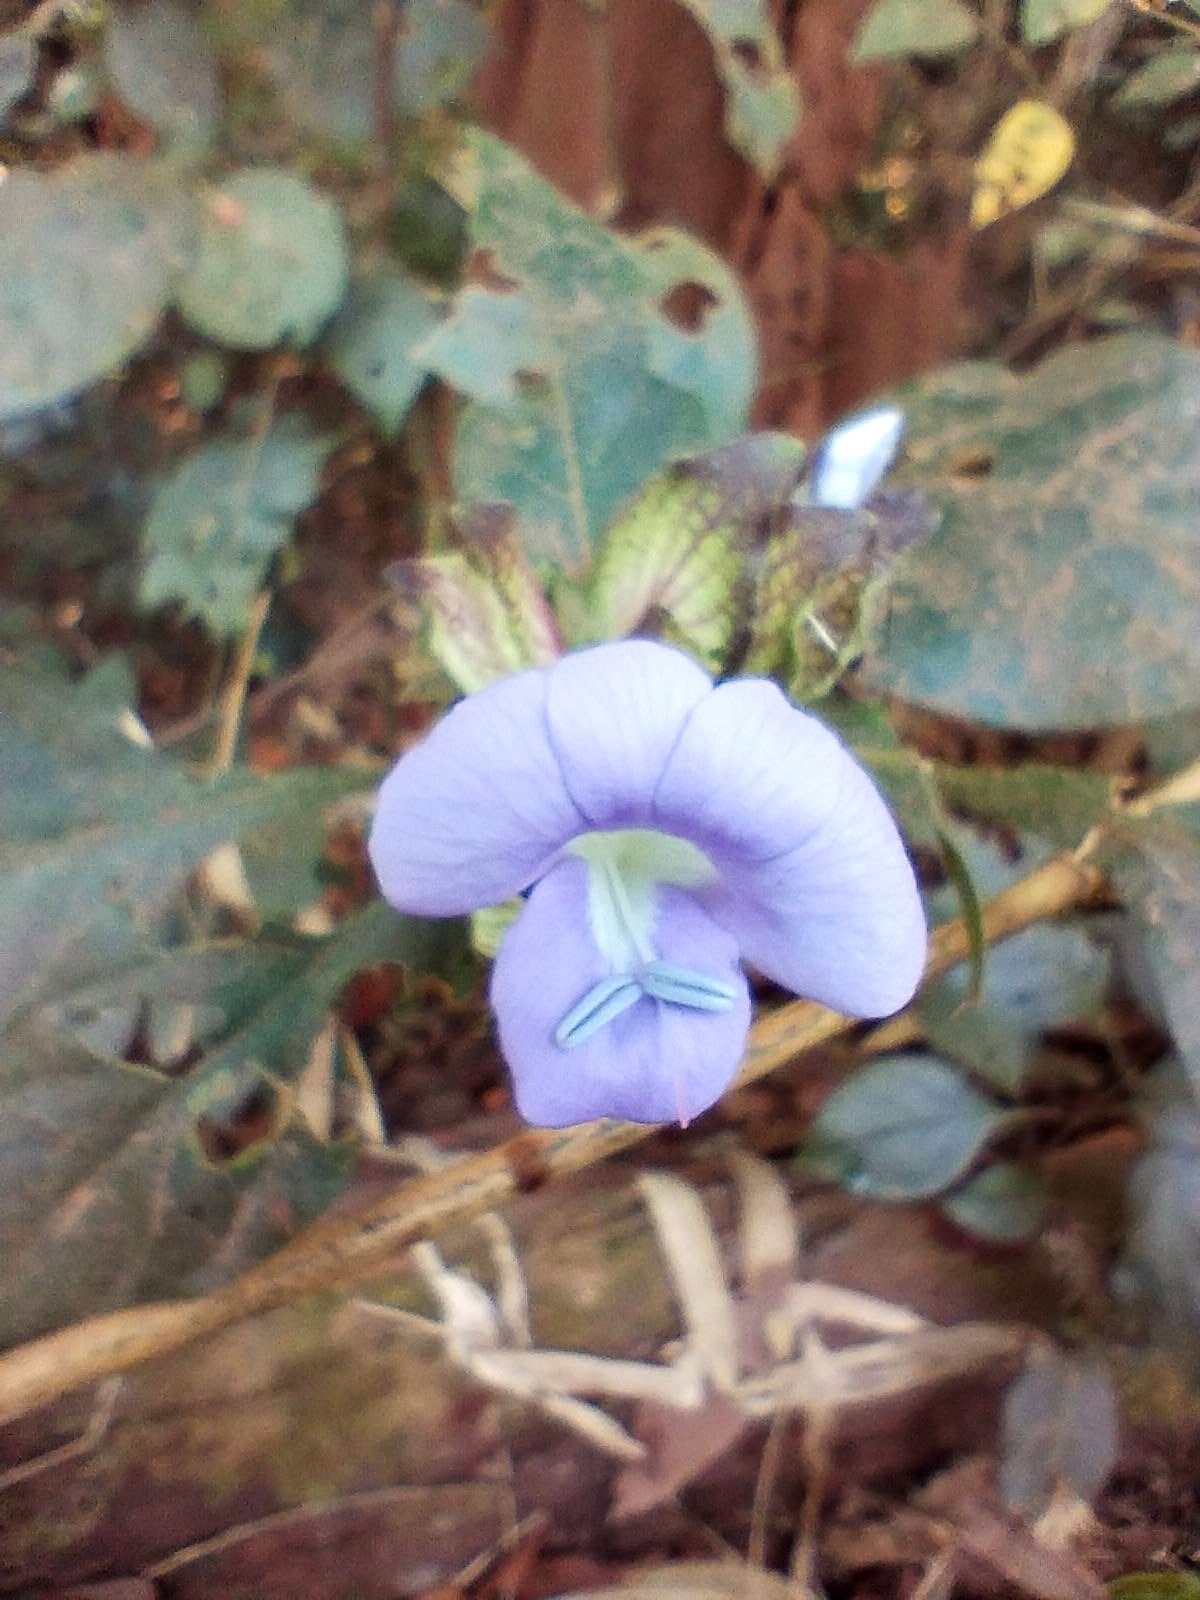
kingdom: Plantae
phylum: Tracheophyta
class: Magnoliopsida
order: Lamiales
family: Acanthaceae
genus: Barleria
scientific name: Barleria strigosa
